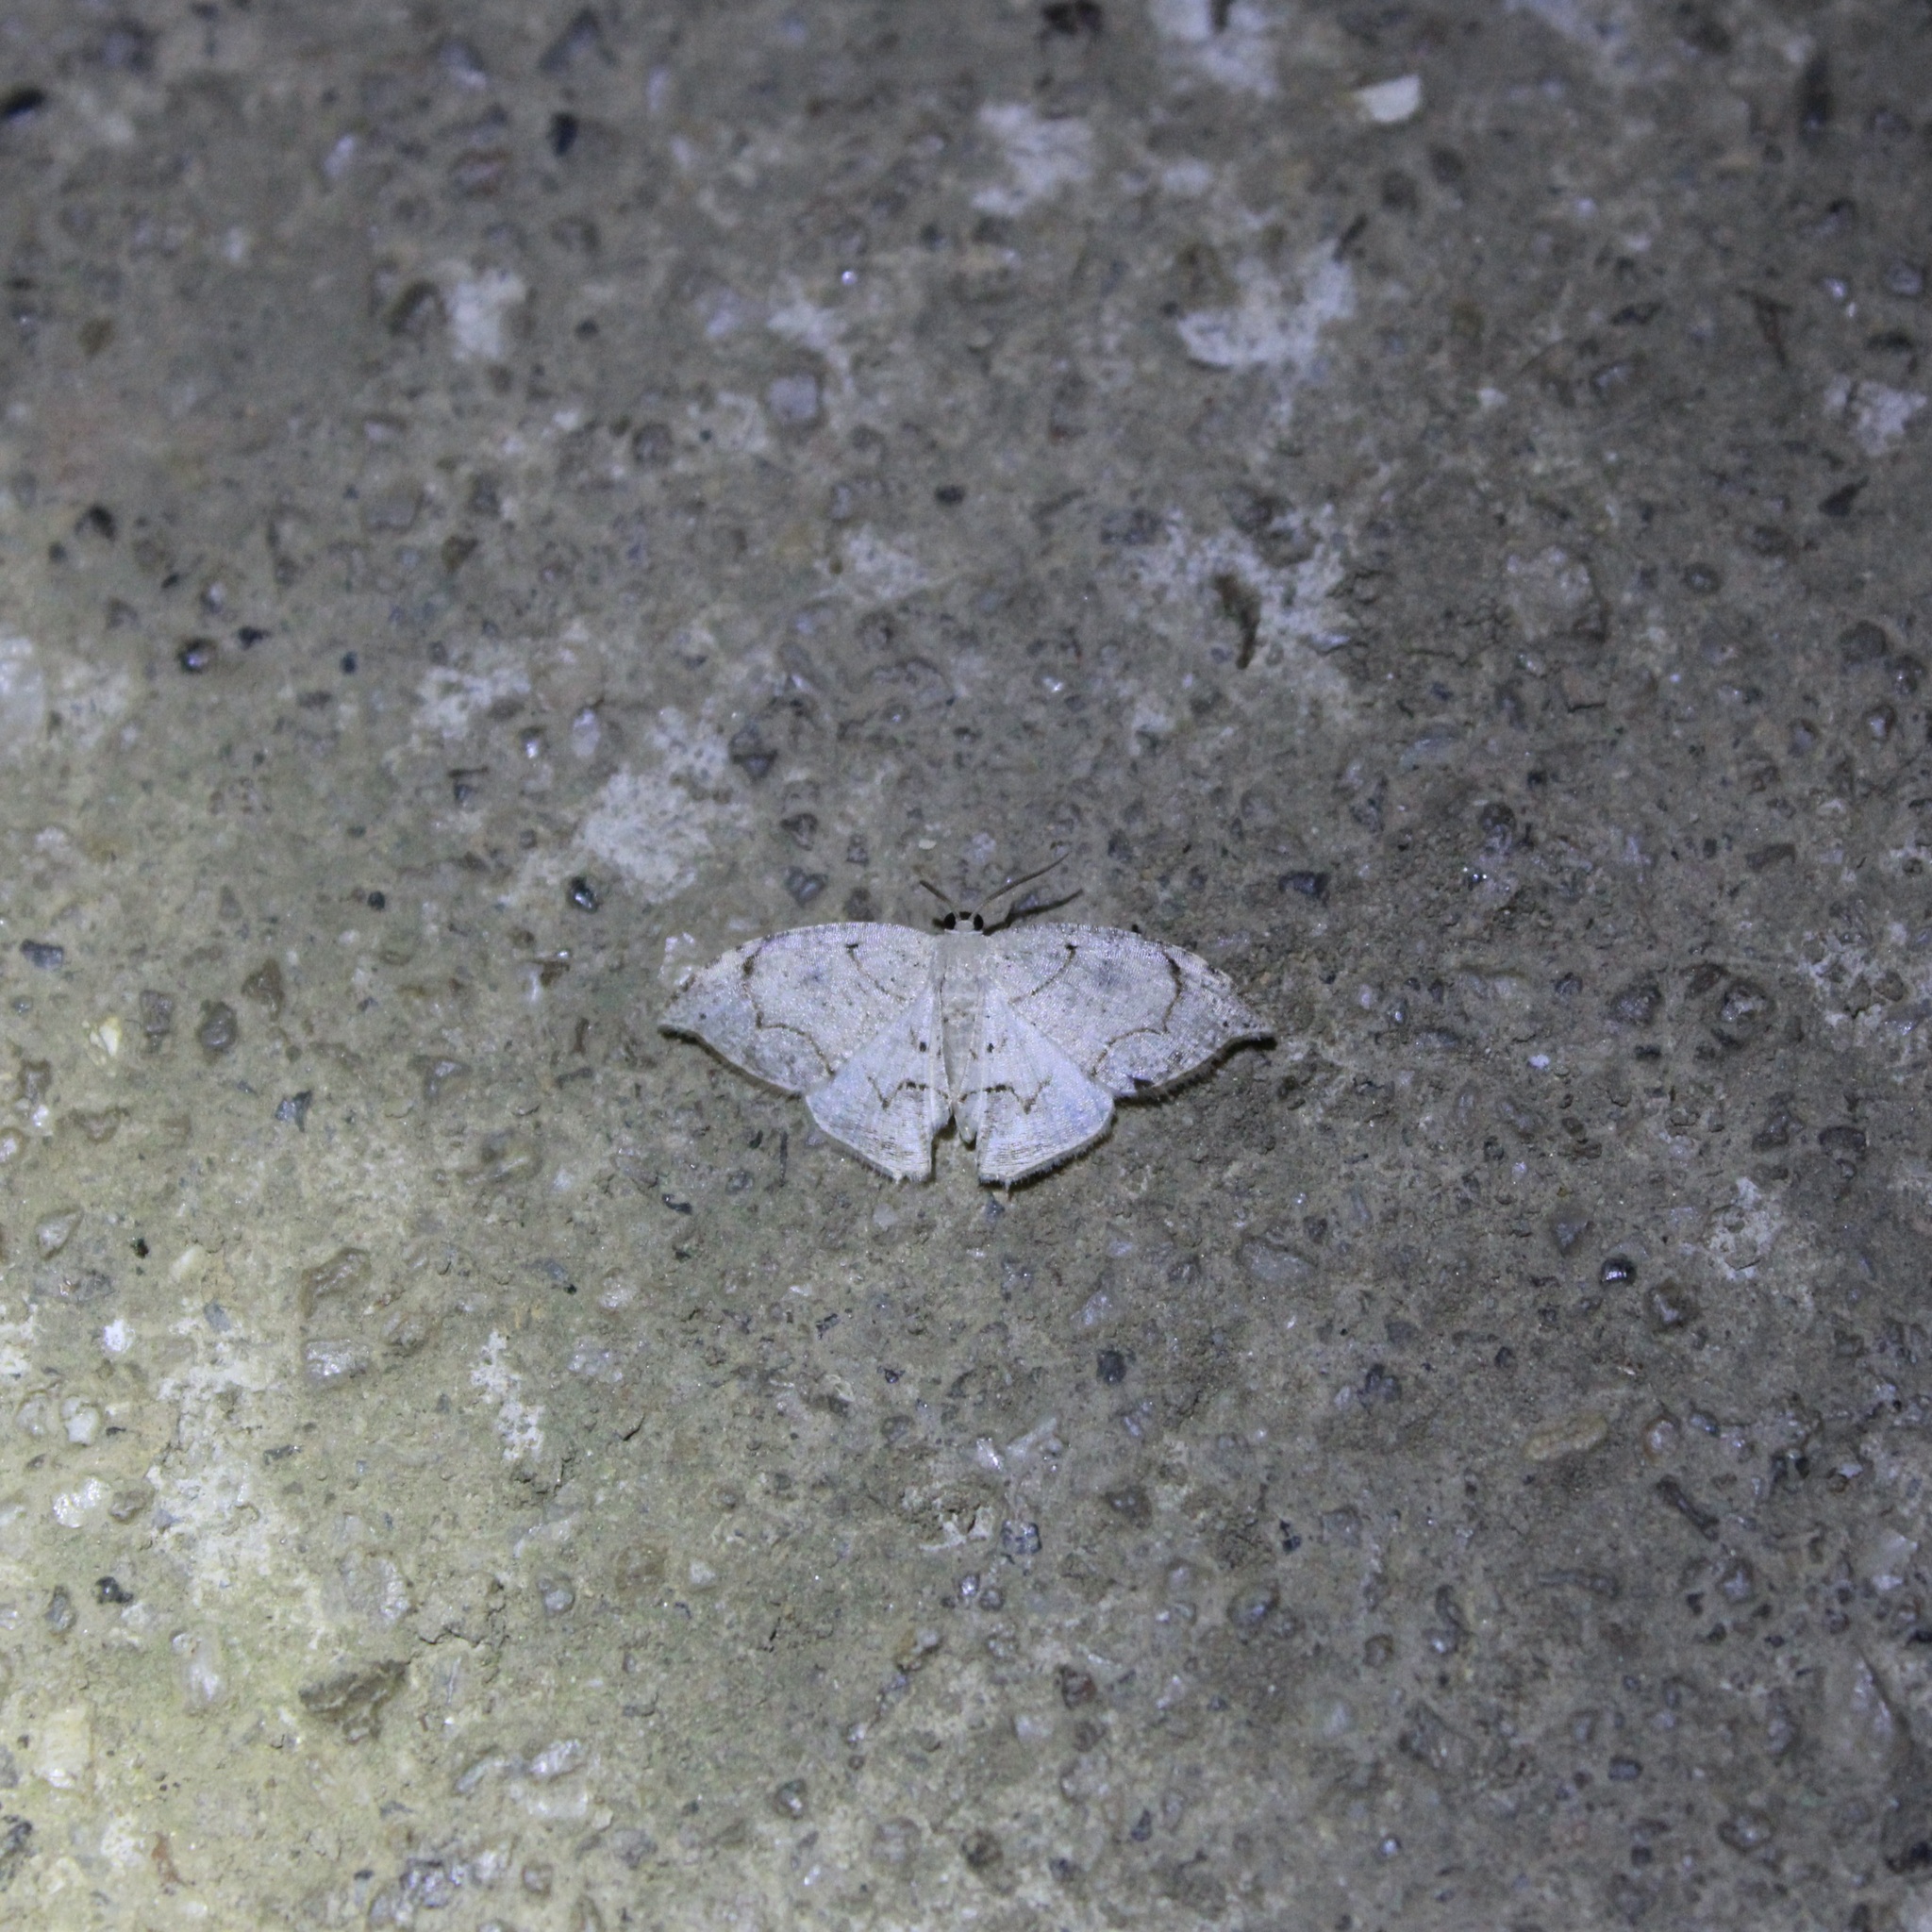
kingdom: Animalia
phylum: Arthropoda
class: Insecta
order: Lepidoptera
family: Uraniidae
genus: Epiplema
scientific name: Epiplema adjectaria
